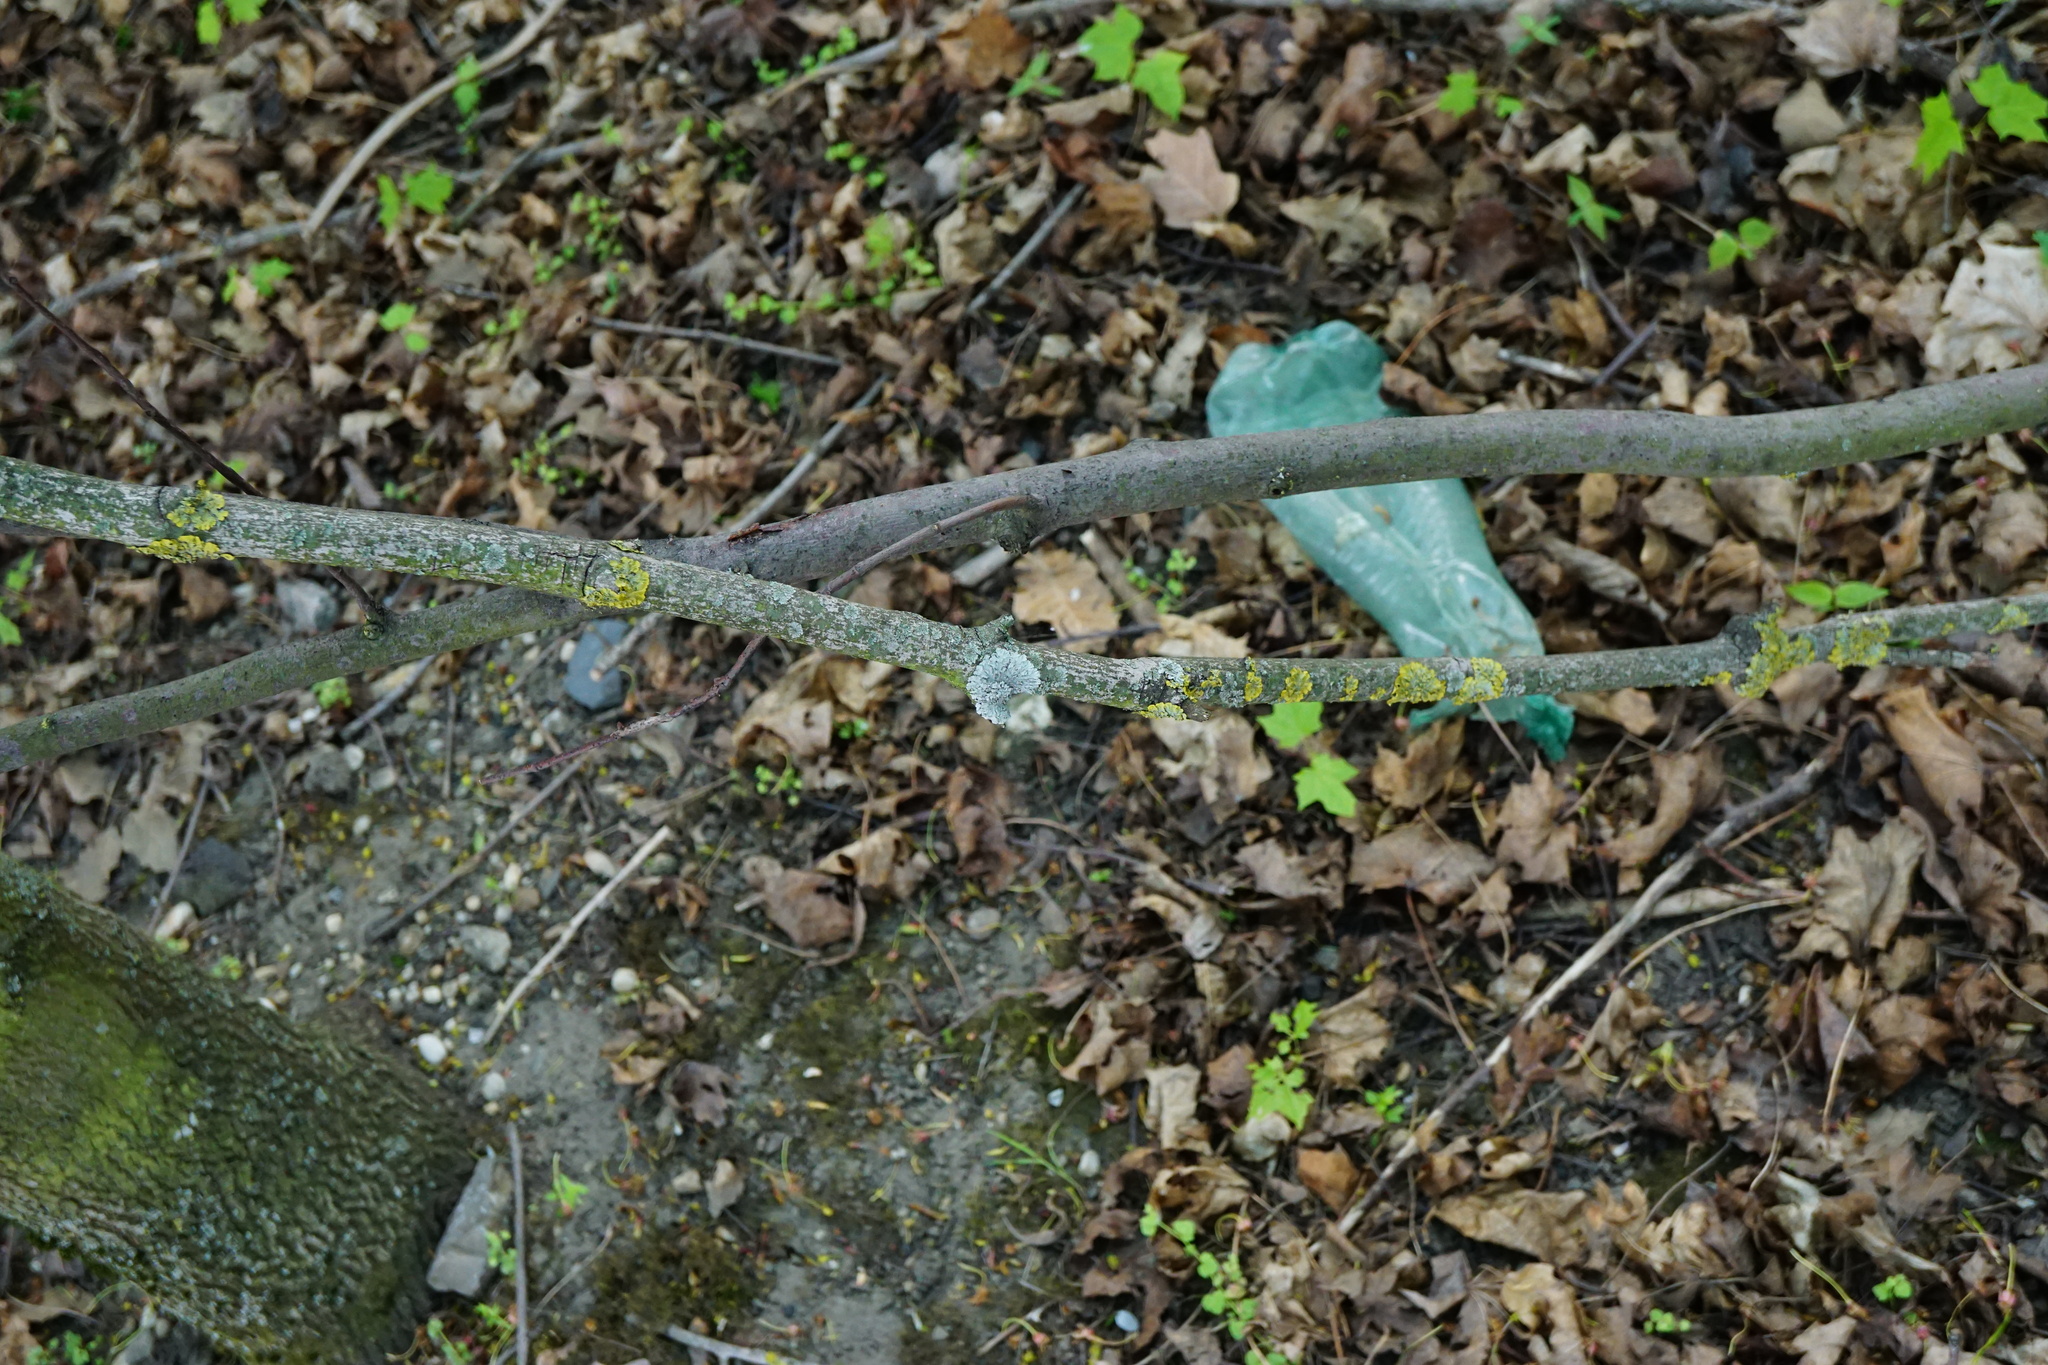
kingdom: Fungi
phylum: Ascomycota
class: Lecanoromycetes
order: Teloschistales
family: Teloschistaceae
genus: Xanthoria
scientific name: Xanthoria parietina
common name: Common orange lichen
